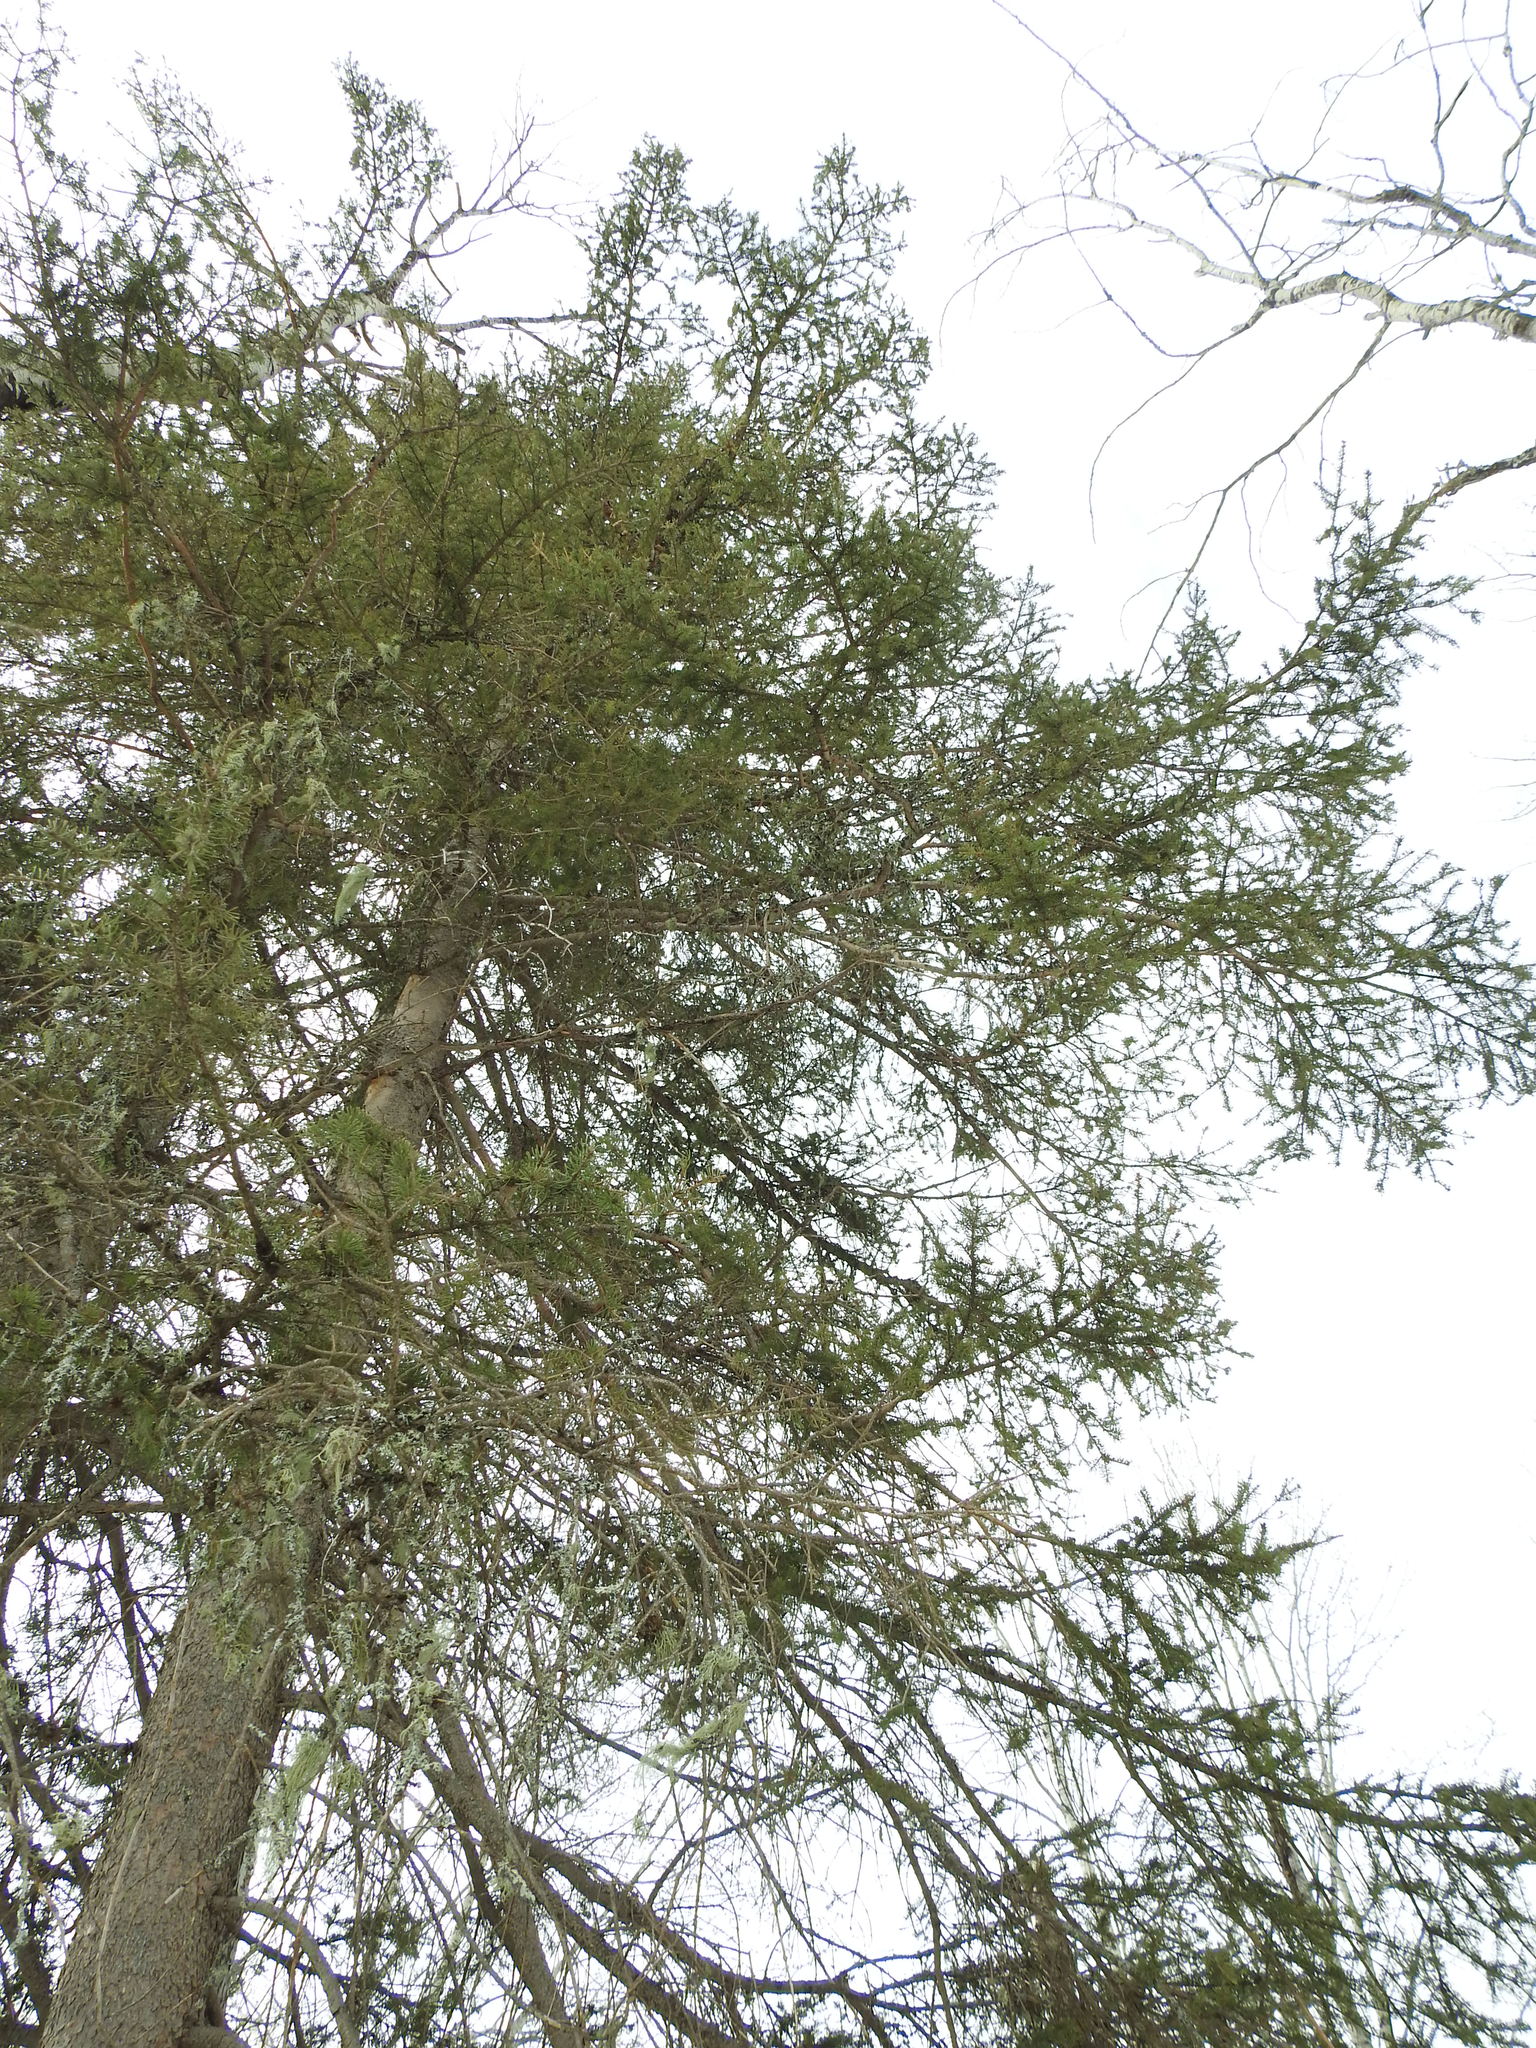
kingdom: Plantae
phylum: Tracheophyta
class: Pinopsida
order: Pinales
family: Pinaceae
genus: Picea
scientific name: Picea glauca
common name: White spruce
